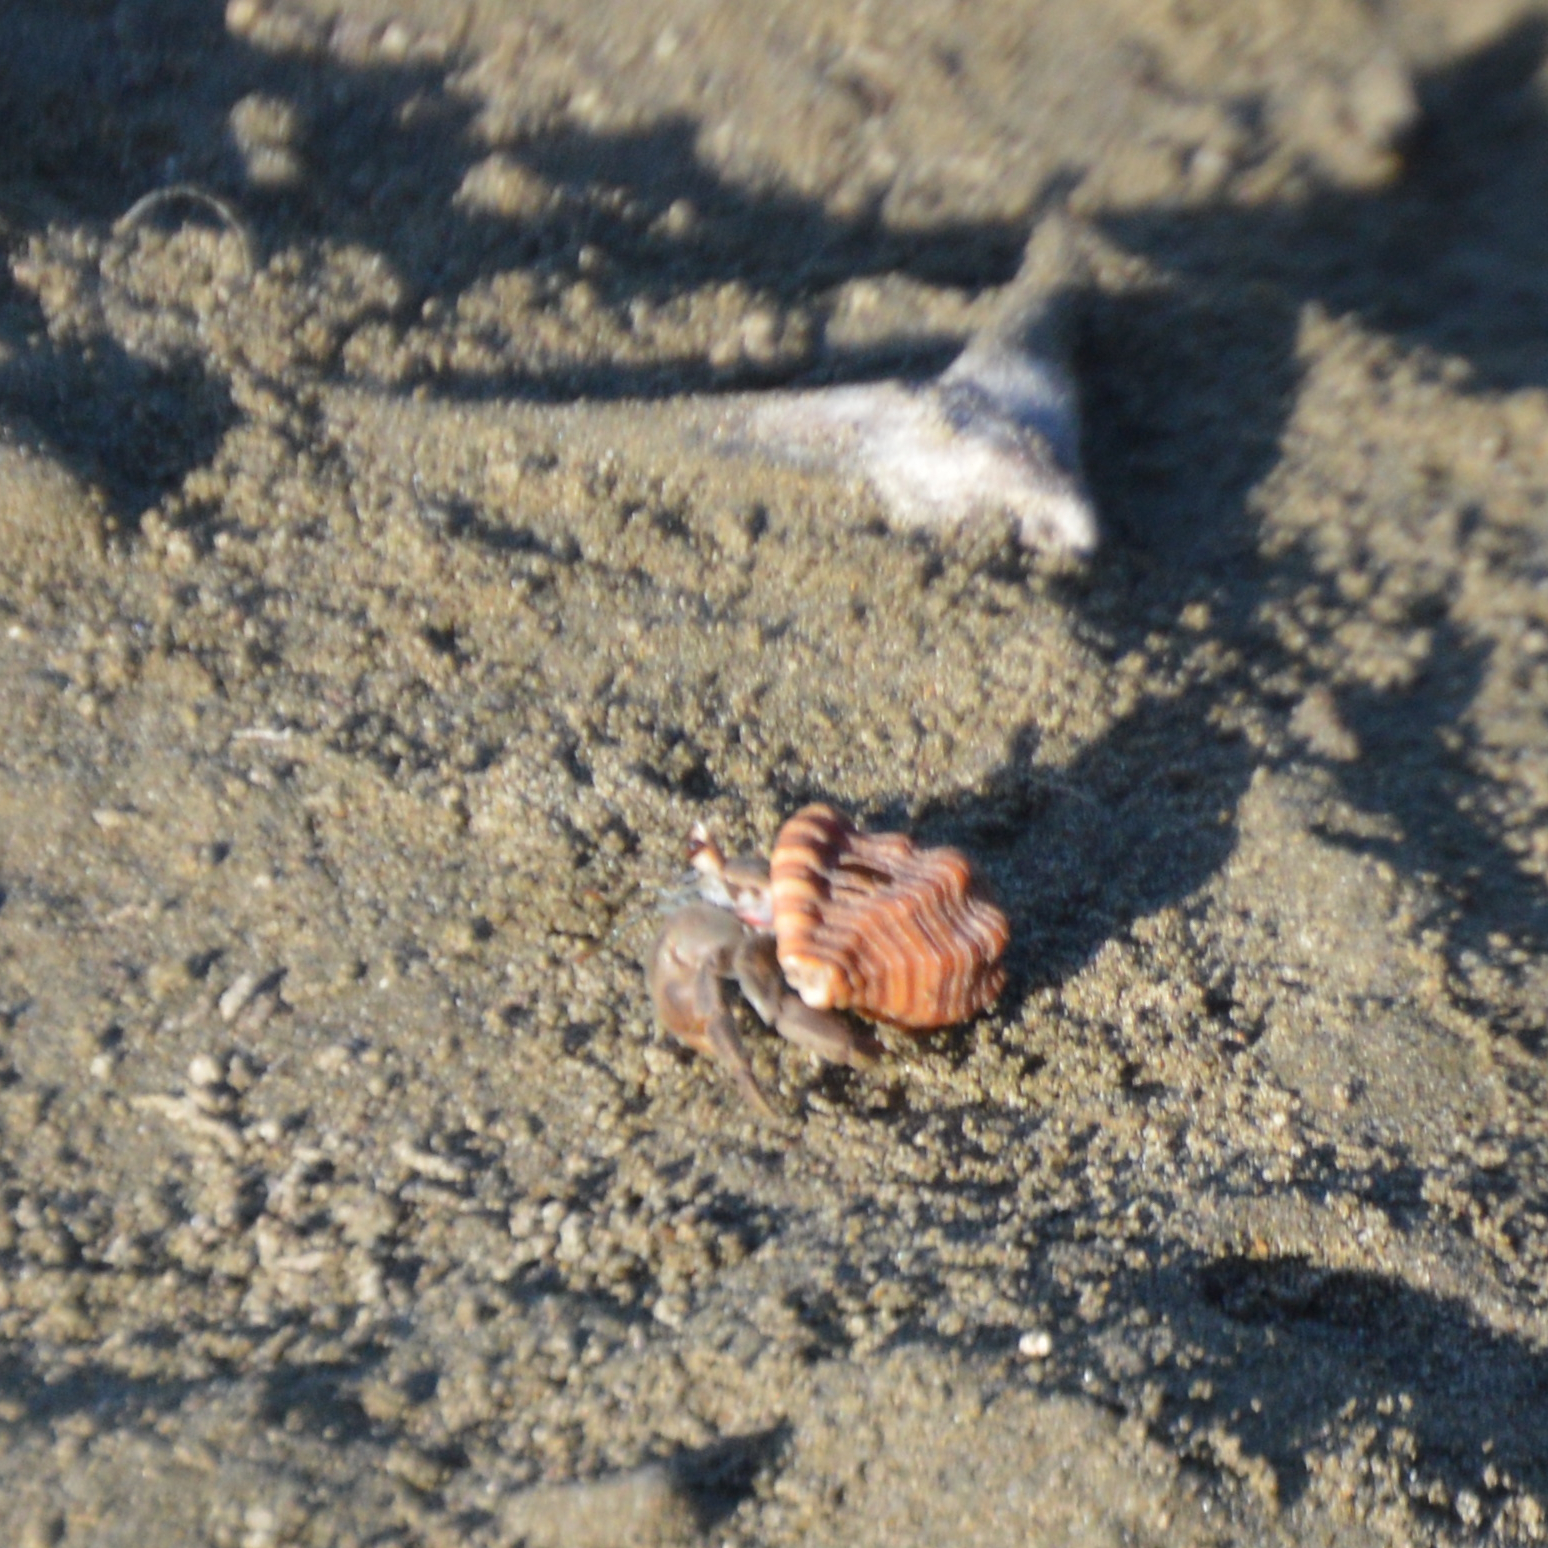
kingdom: Animalia
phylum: Arthropoda
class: Malacostraca
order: Decapoda
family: Coenobitidae
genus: Coenobita
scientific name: Coenobita compressus
